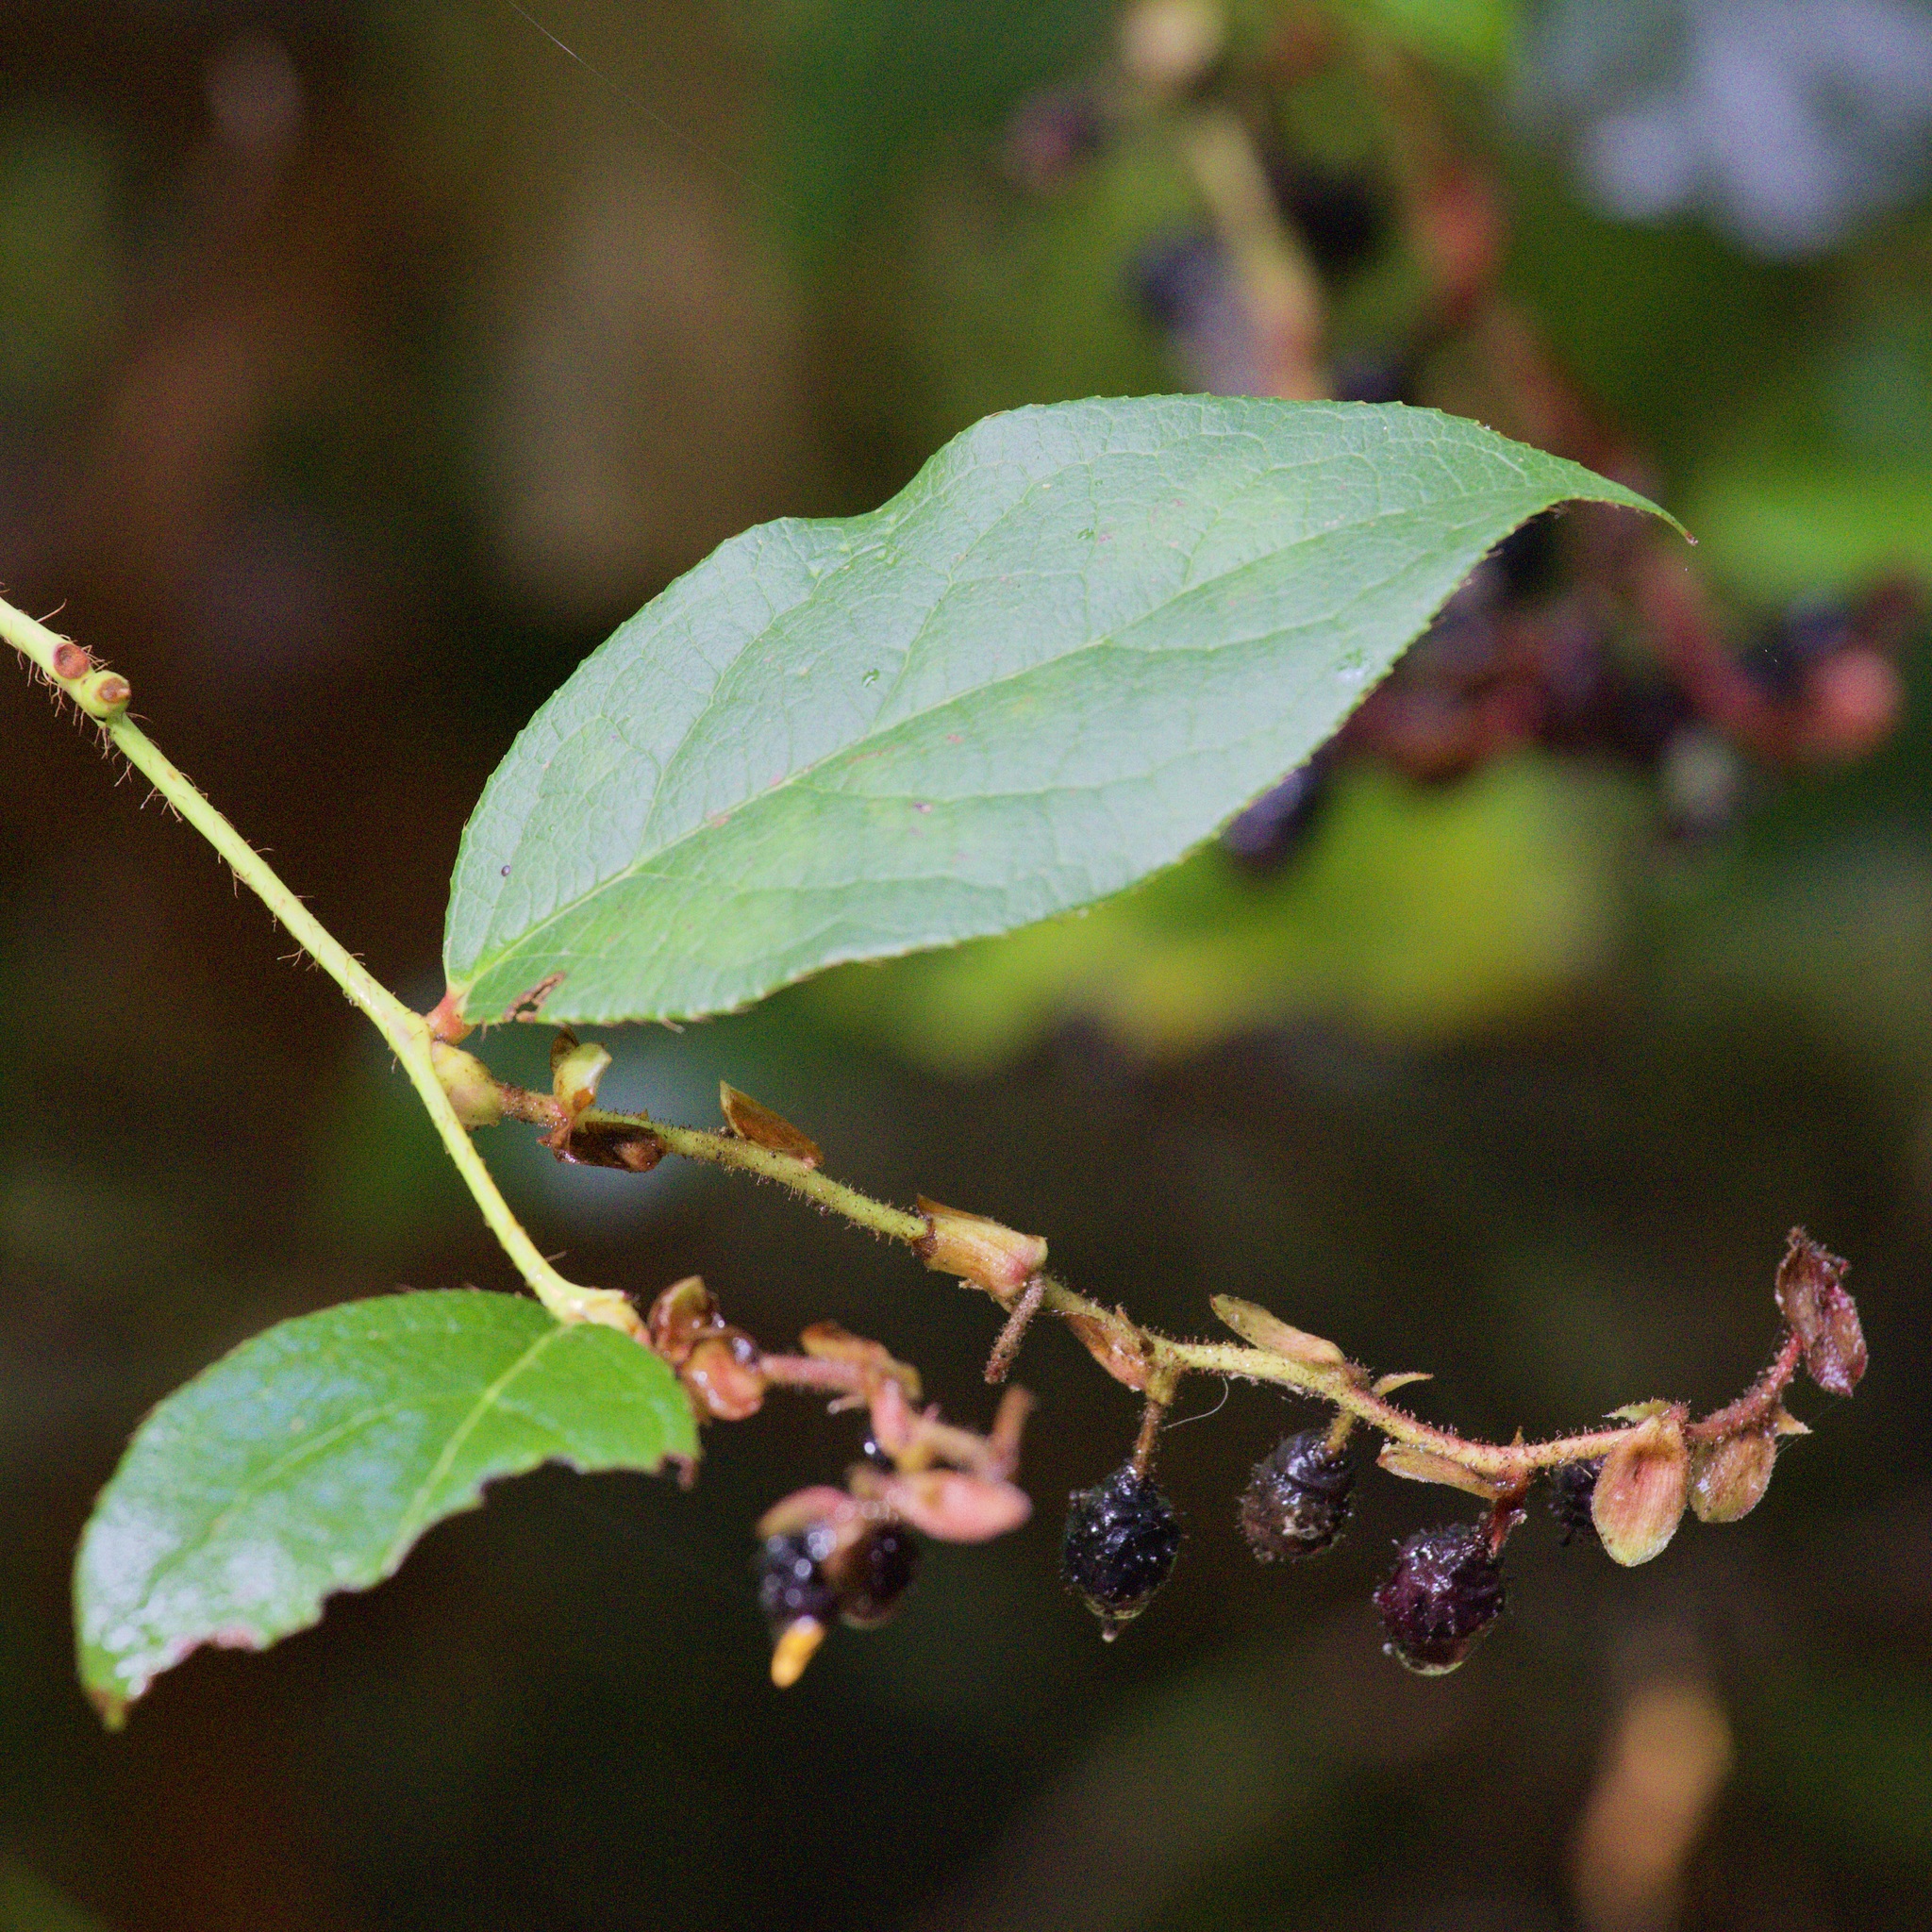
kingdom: Plantae
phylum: Tracheophyta
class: Magnoliopsida
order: Ericales
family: Ericaceae
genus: Gaultheria
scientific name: Gaultheria shallon
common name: Shallon
